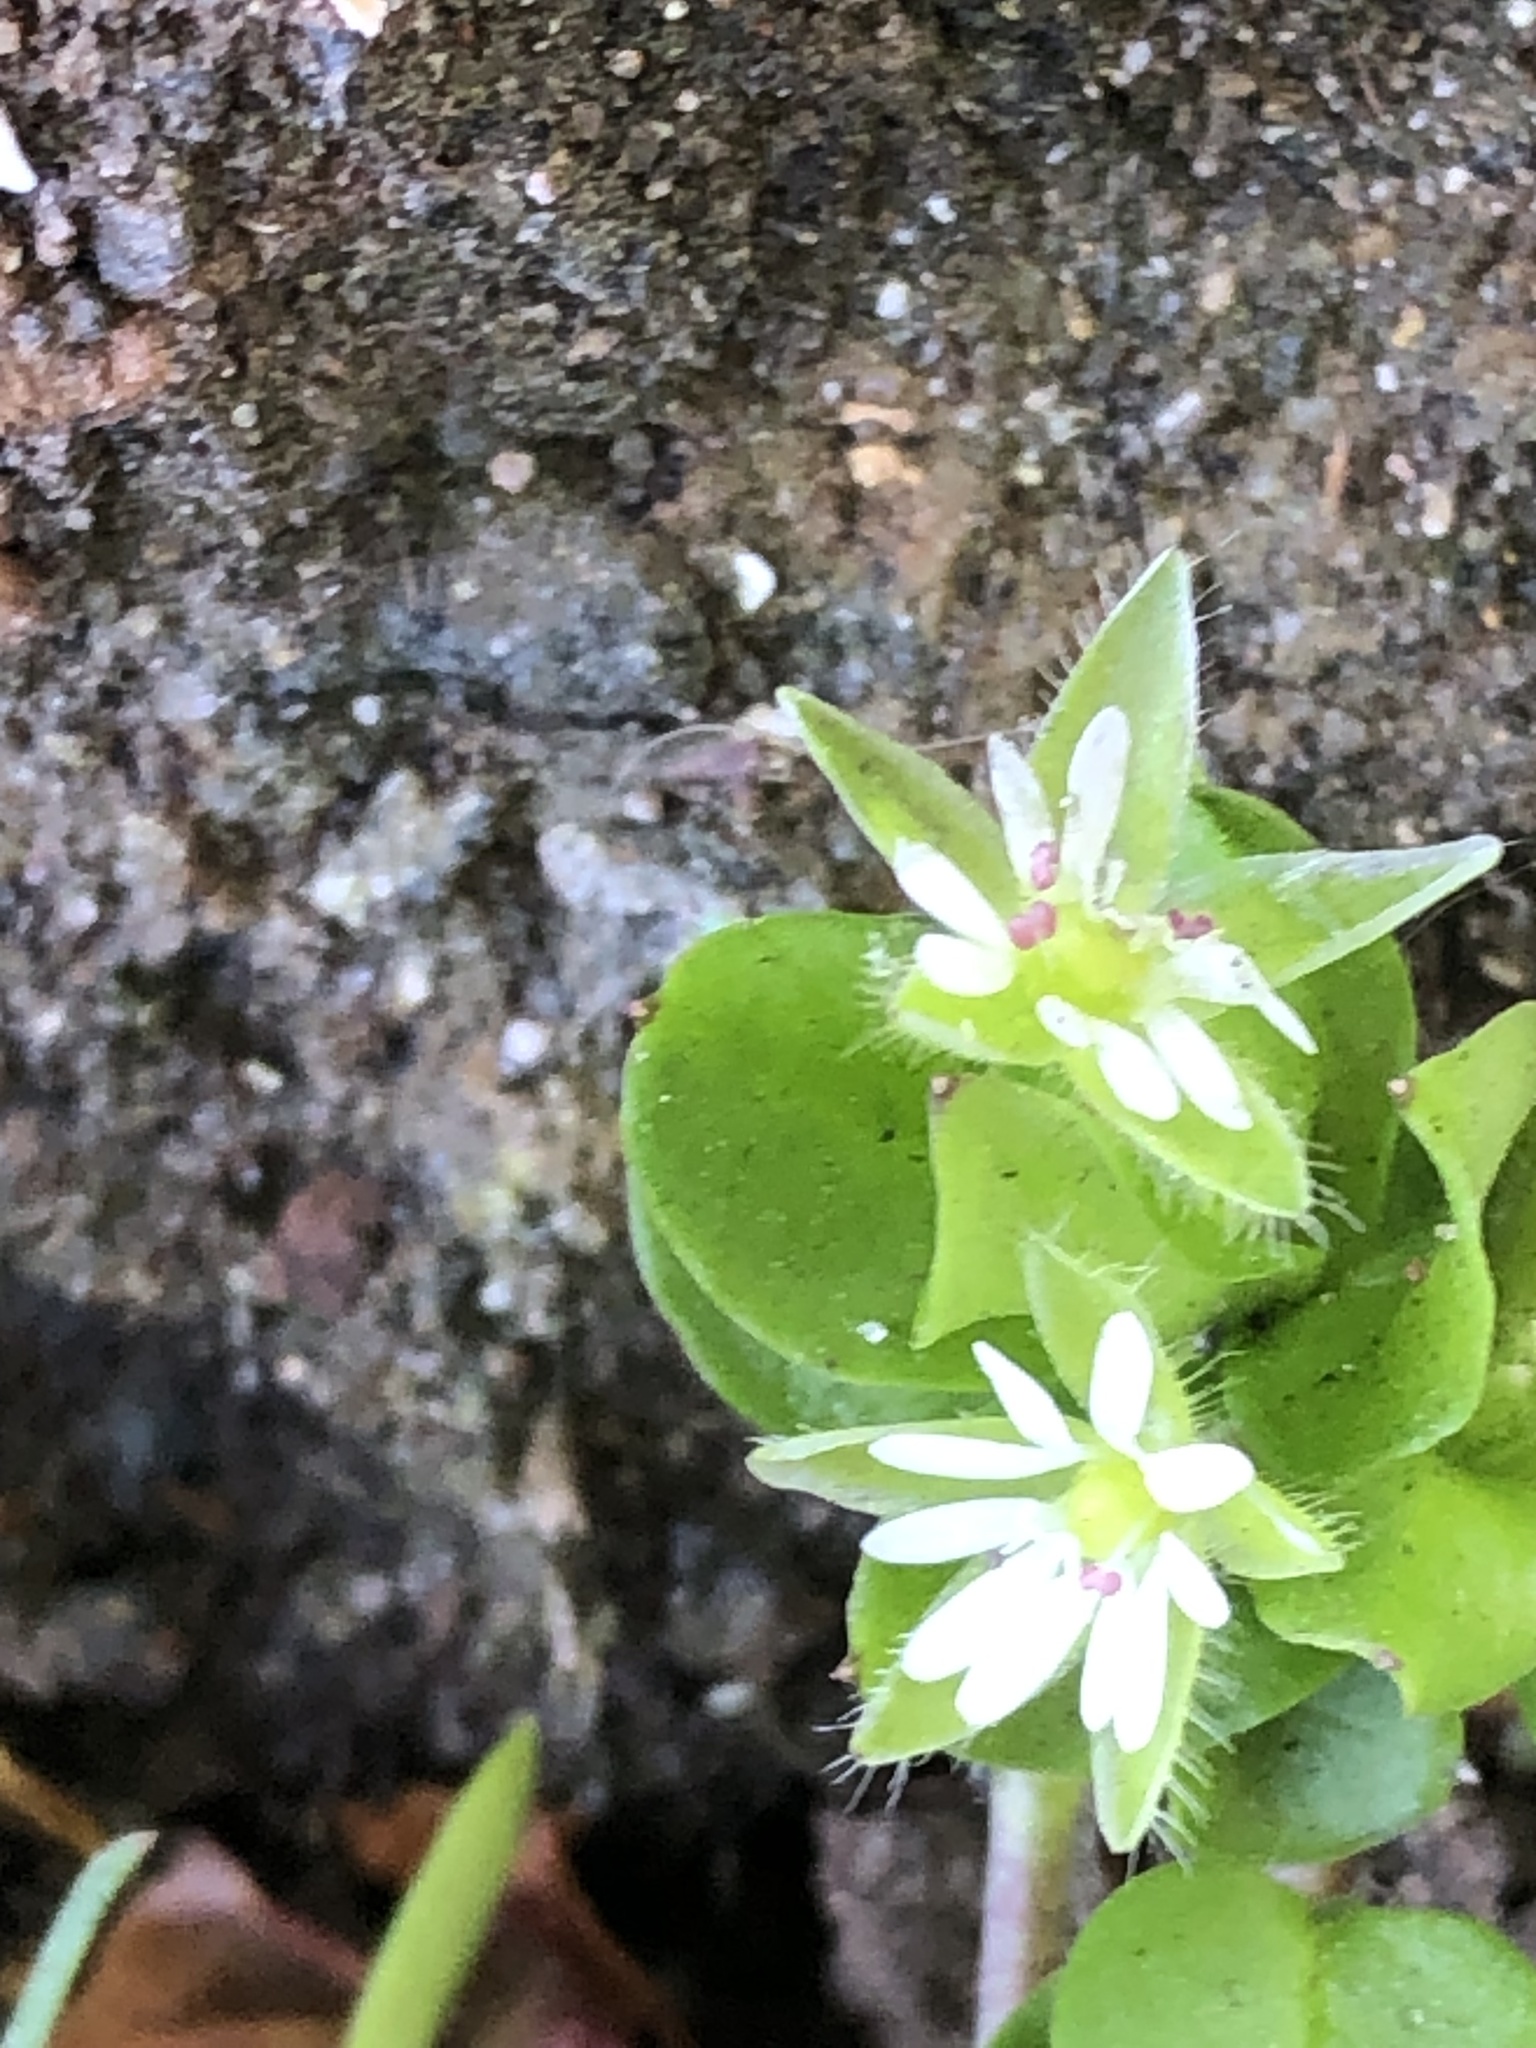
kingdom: Plantae
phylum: Tracheophyta
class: Magnoliopsida
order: Caryophyllales
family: Caryophyllaceae
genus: Stellaria
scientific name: Stellaria media
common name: Common chickweed
